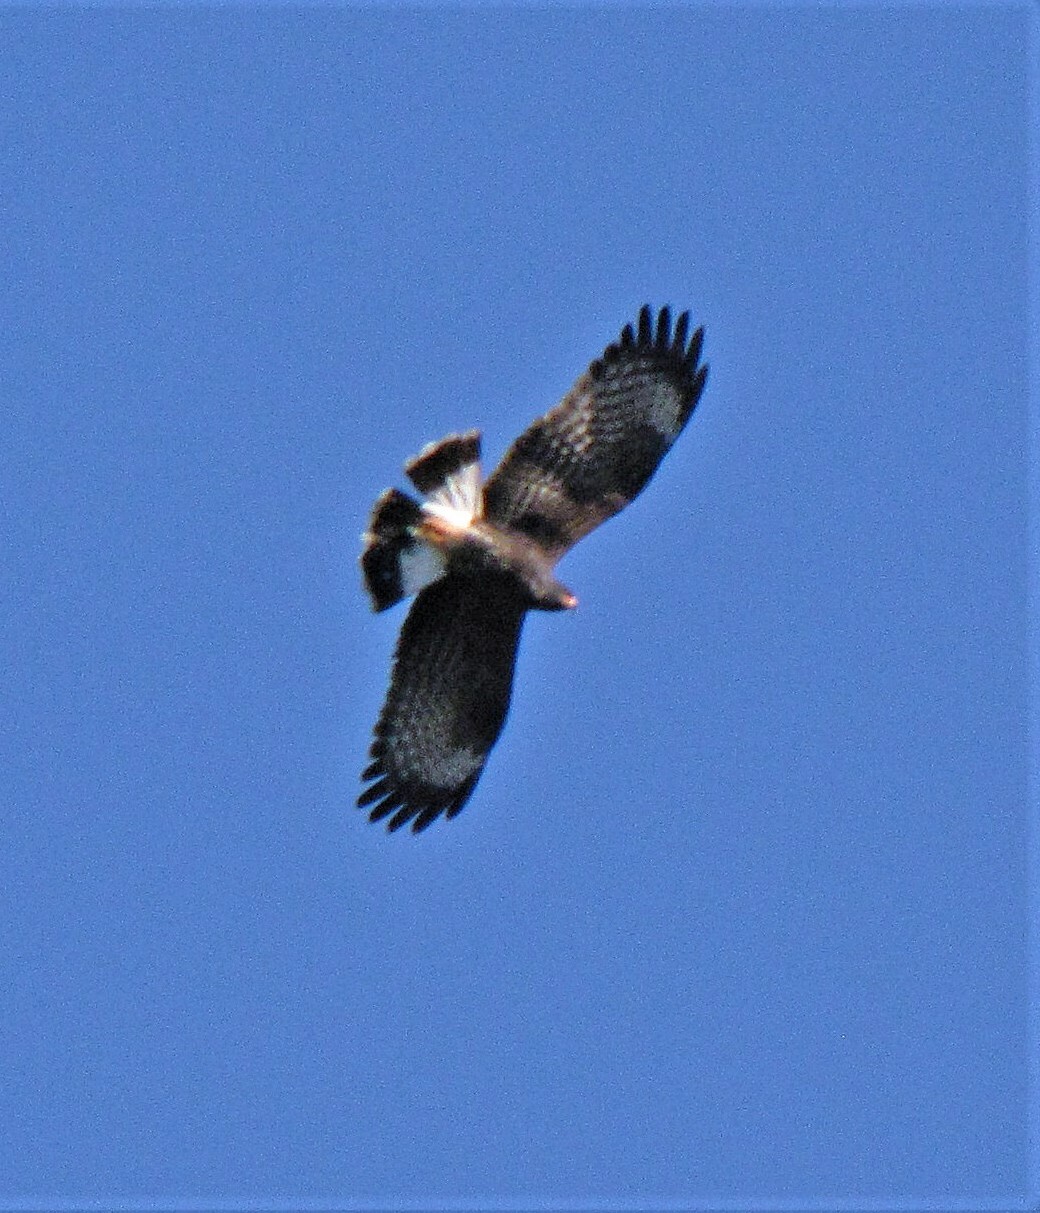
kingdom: Animalia
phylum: Chordata
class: Aves
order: Accipitriformes
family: Accipitridae
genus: Rostrhamus
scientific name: Rostrhamus sociabilis
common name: Snail kite
